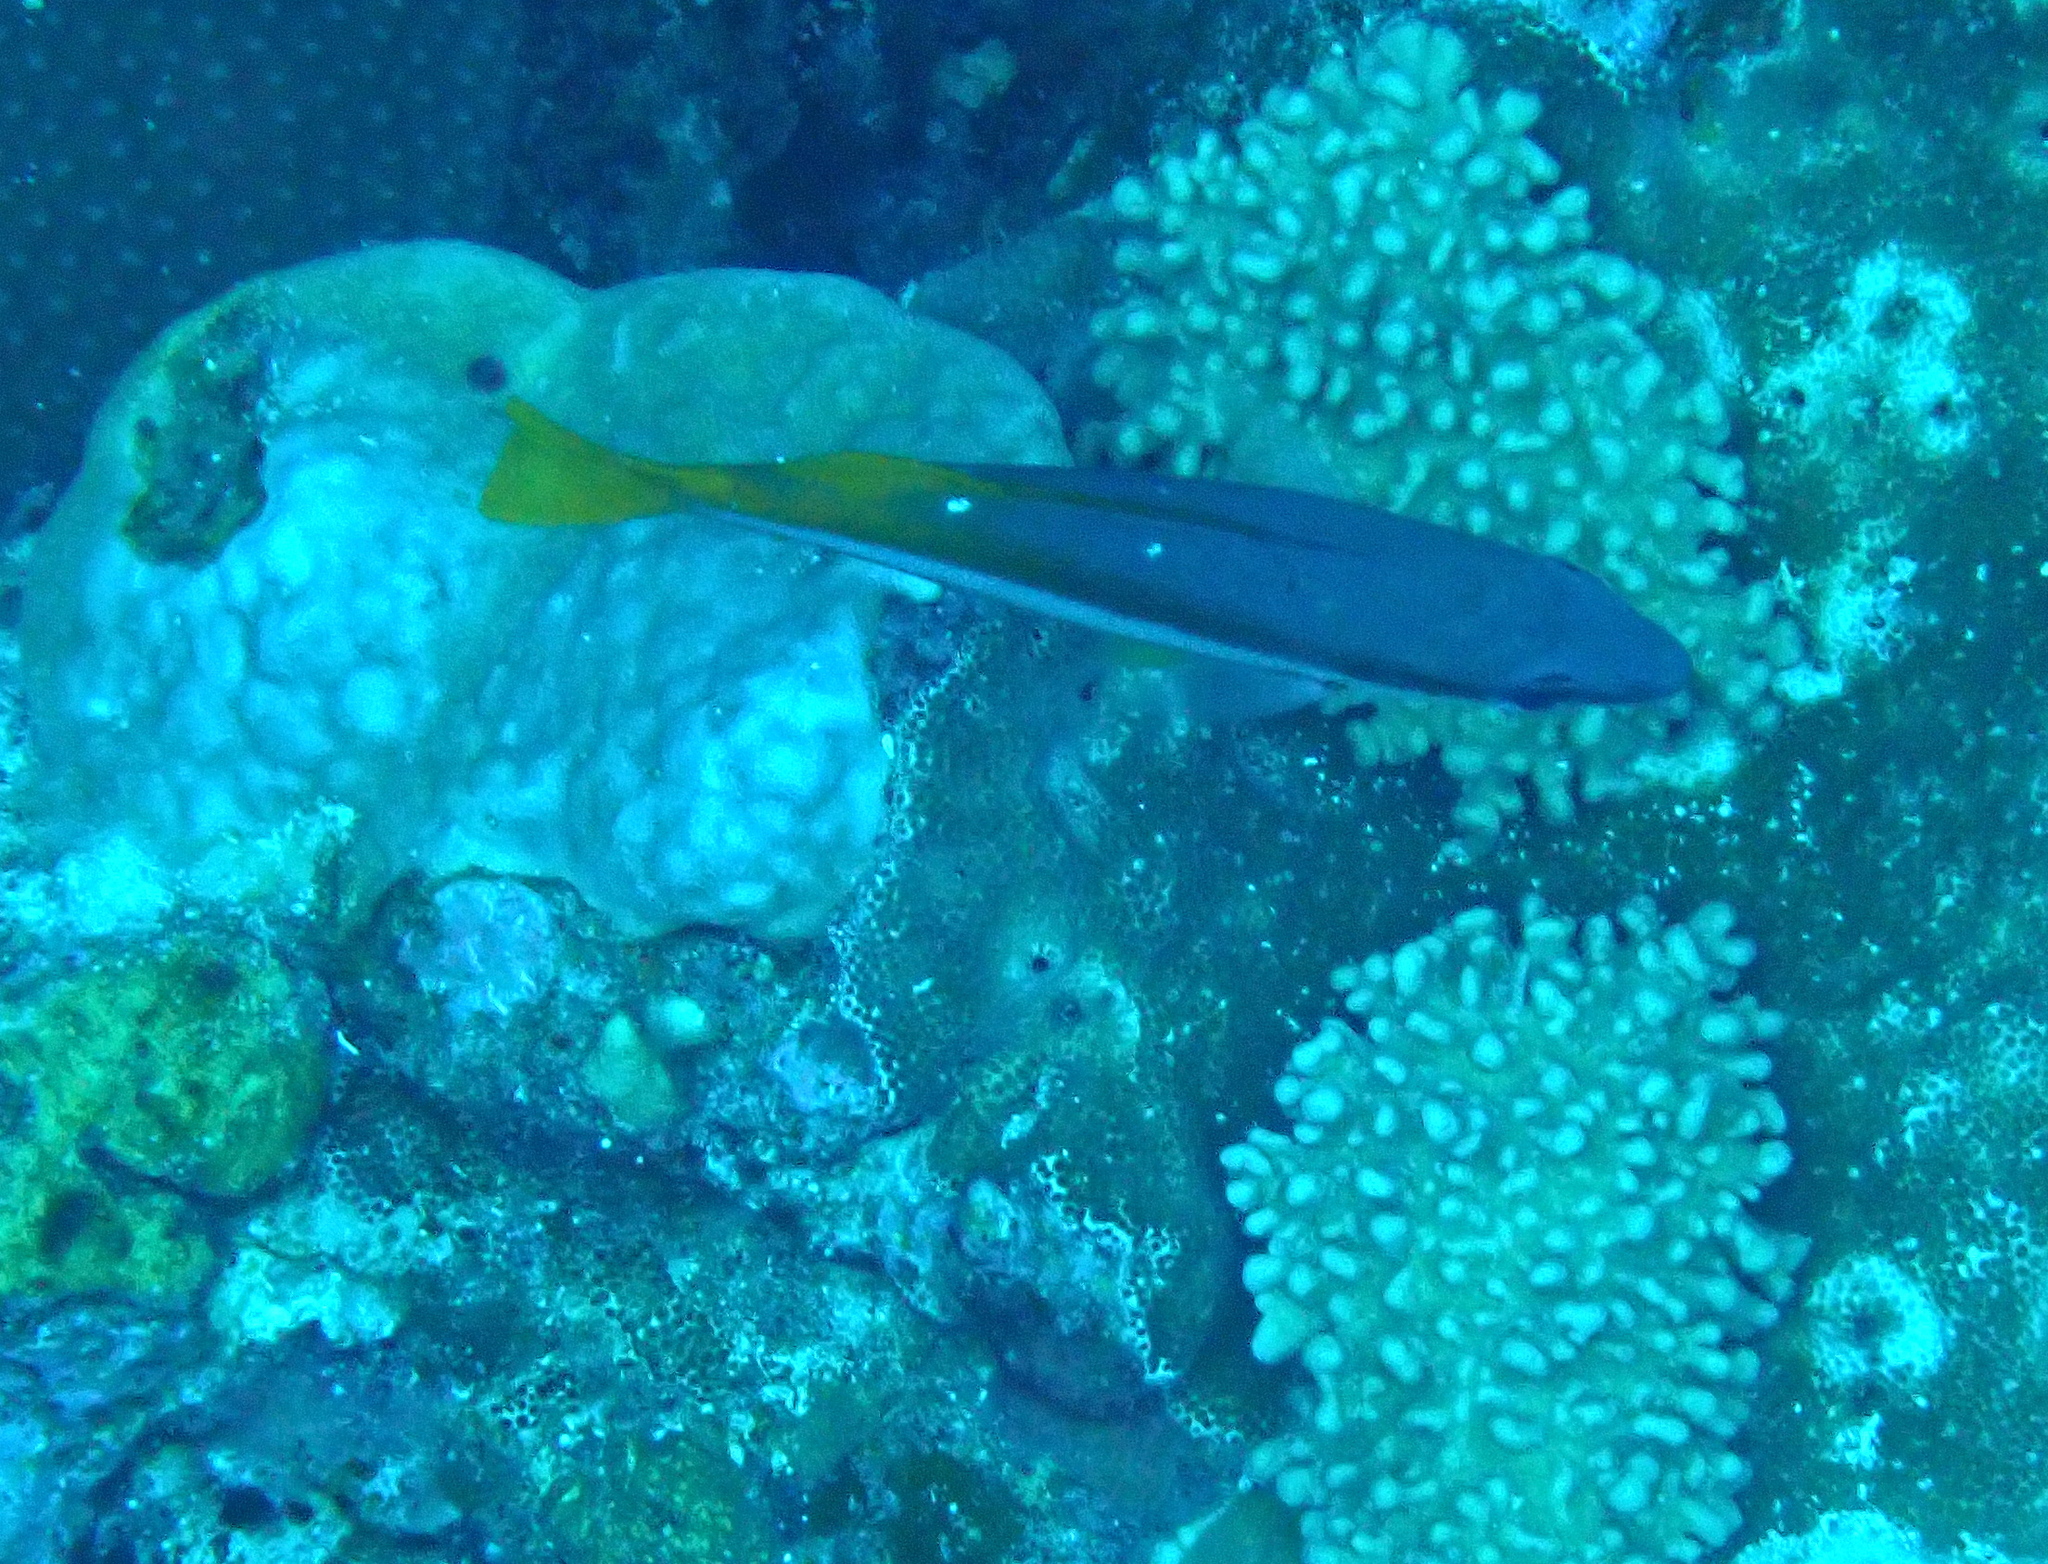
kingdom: Animalia
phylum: Chordata
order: Perciformes
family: Lutjanidae
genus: Lutjanus
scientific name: Lutjanus biguttatus
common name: Two-spot snapper
